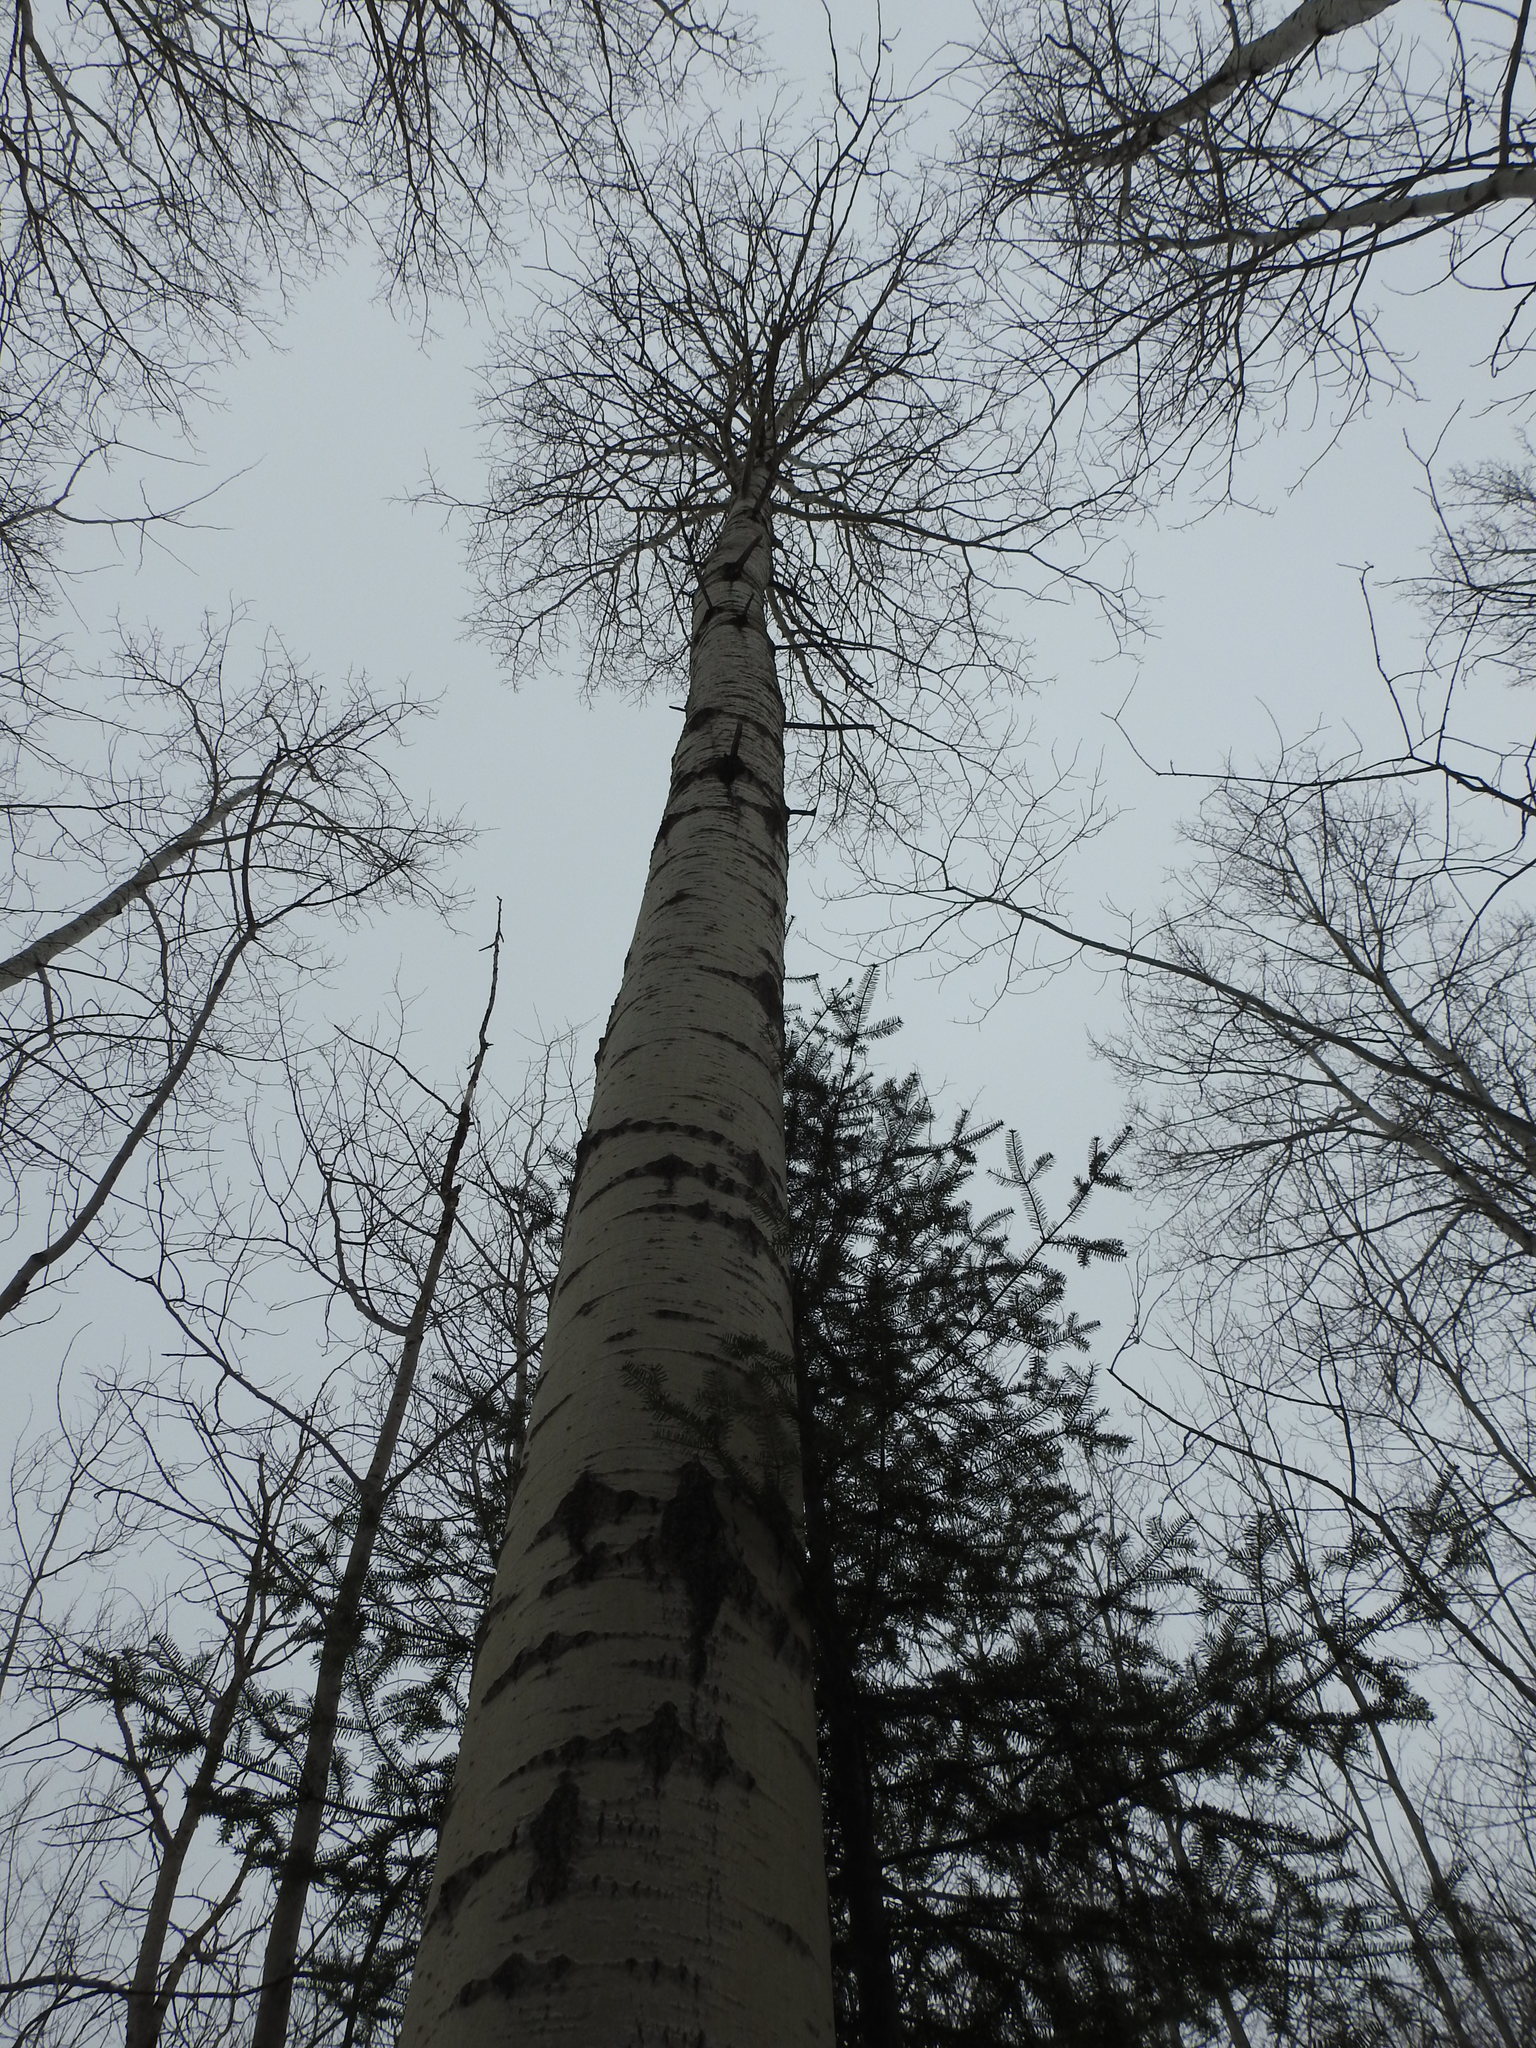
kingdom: Plantae
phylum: Tracheophyta
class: Magnoliopsida
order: Malpighiales
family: Salicaceae
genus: Populus
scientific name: Populus tremuloides
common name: Quaking aspen
